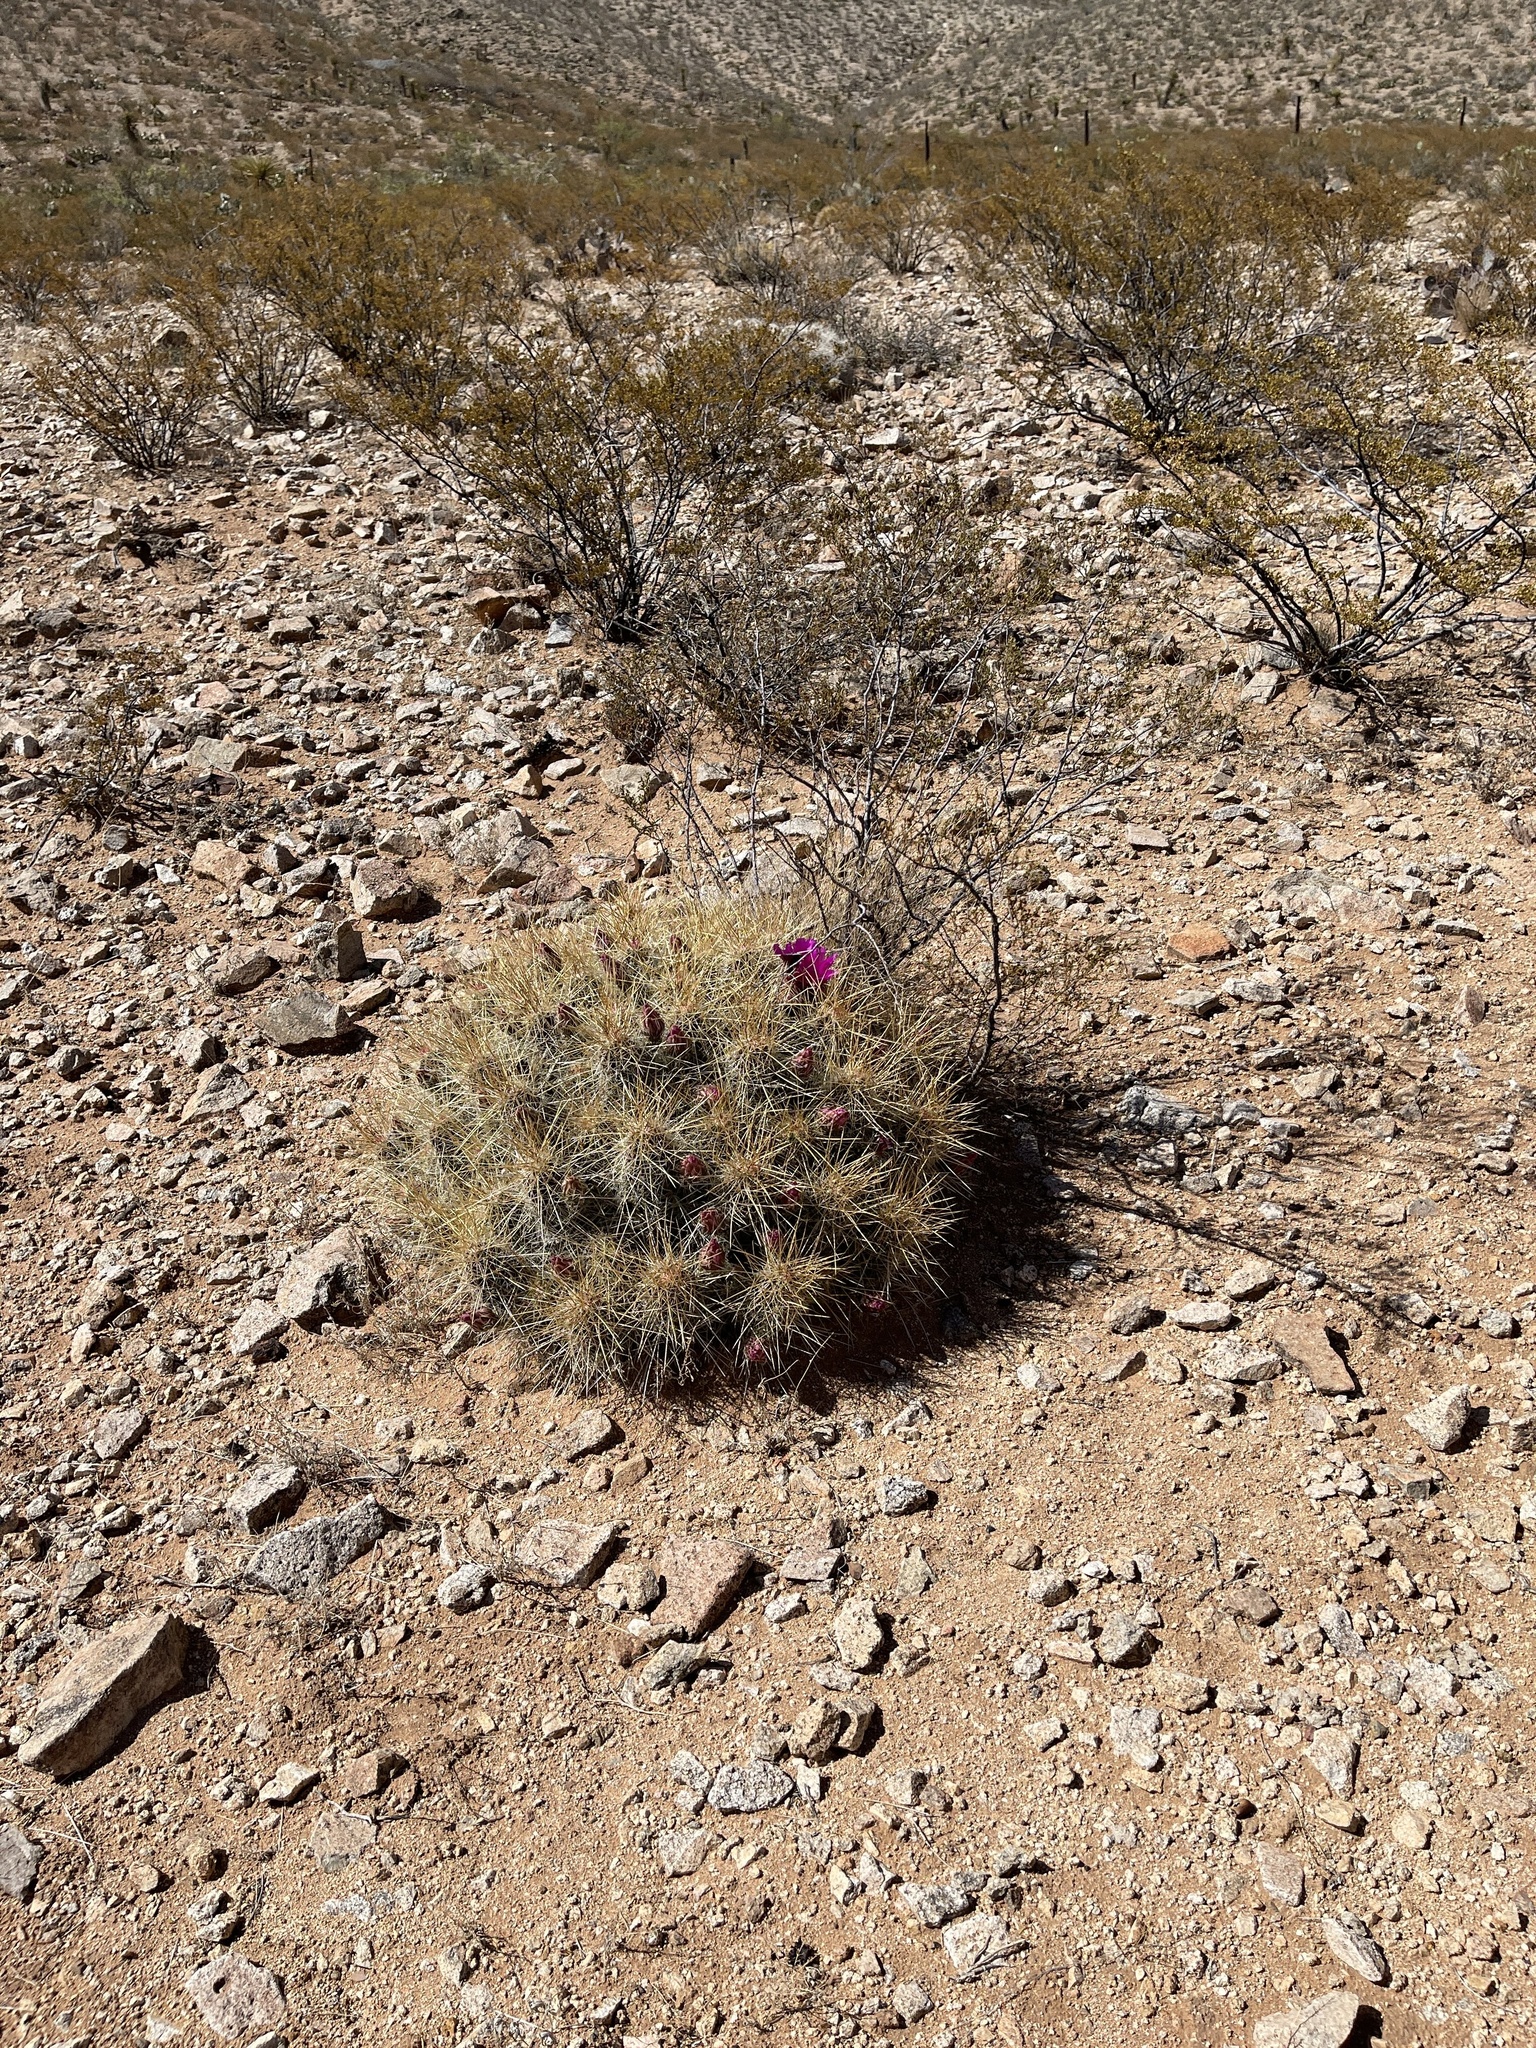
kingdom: Plantae
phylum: Tracheophyta
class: Magnoliopsida
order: Caryophyllales
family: Cactaceae
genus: Echinocereus
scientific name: Echinocereus stramineus
